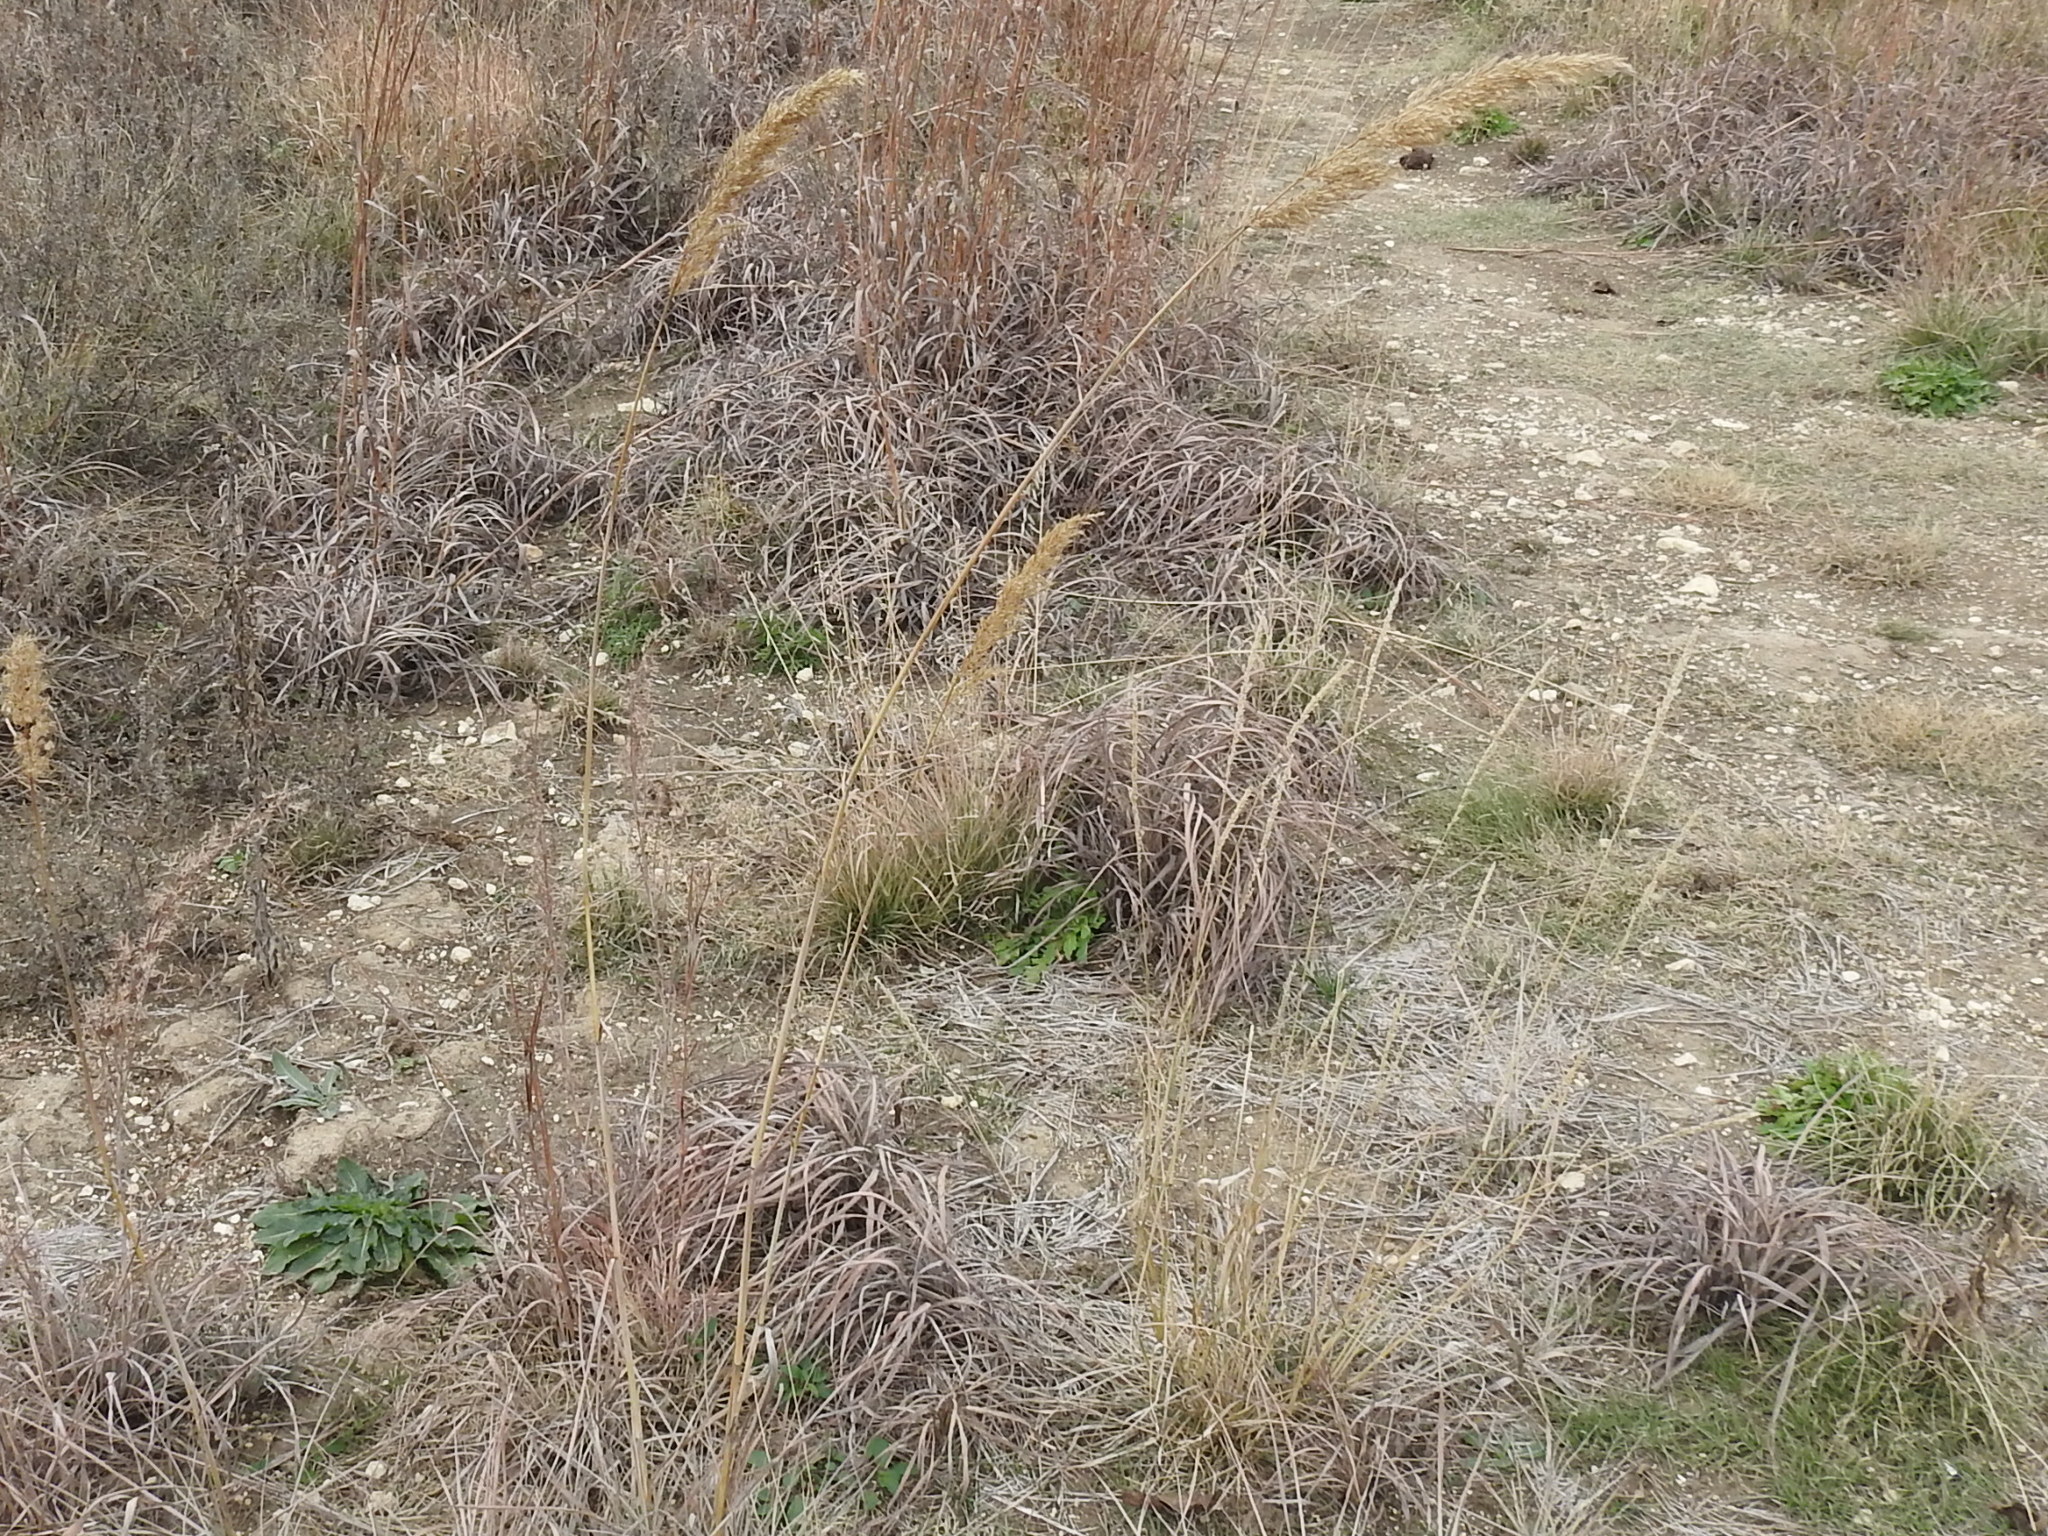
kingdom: Plantae
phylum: Tracheophyta
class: Liliopsida
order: Poales
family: Poaceae
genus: Sorghastrum
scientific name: Sorghastrum nutans
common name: Indian grass
